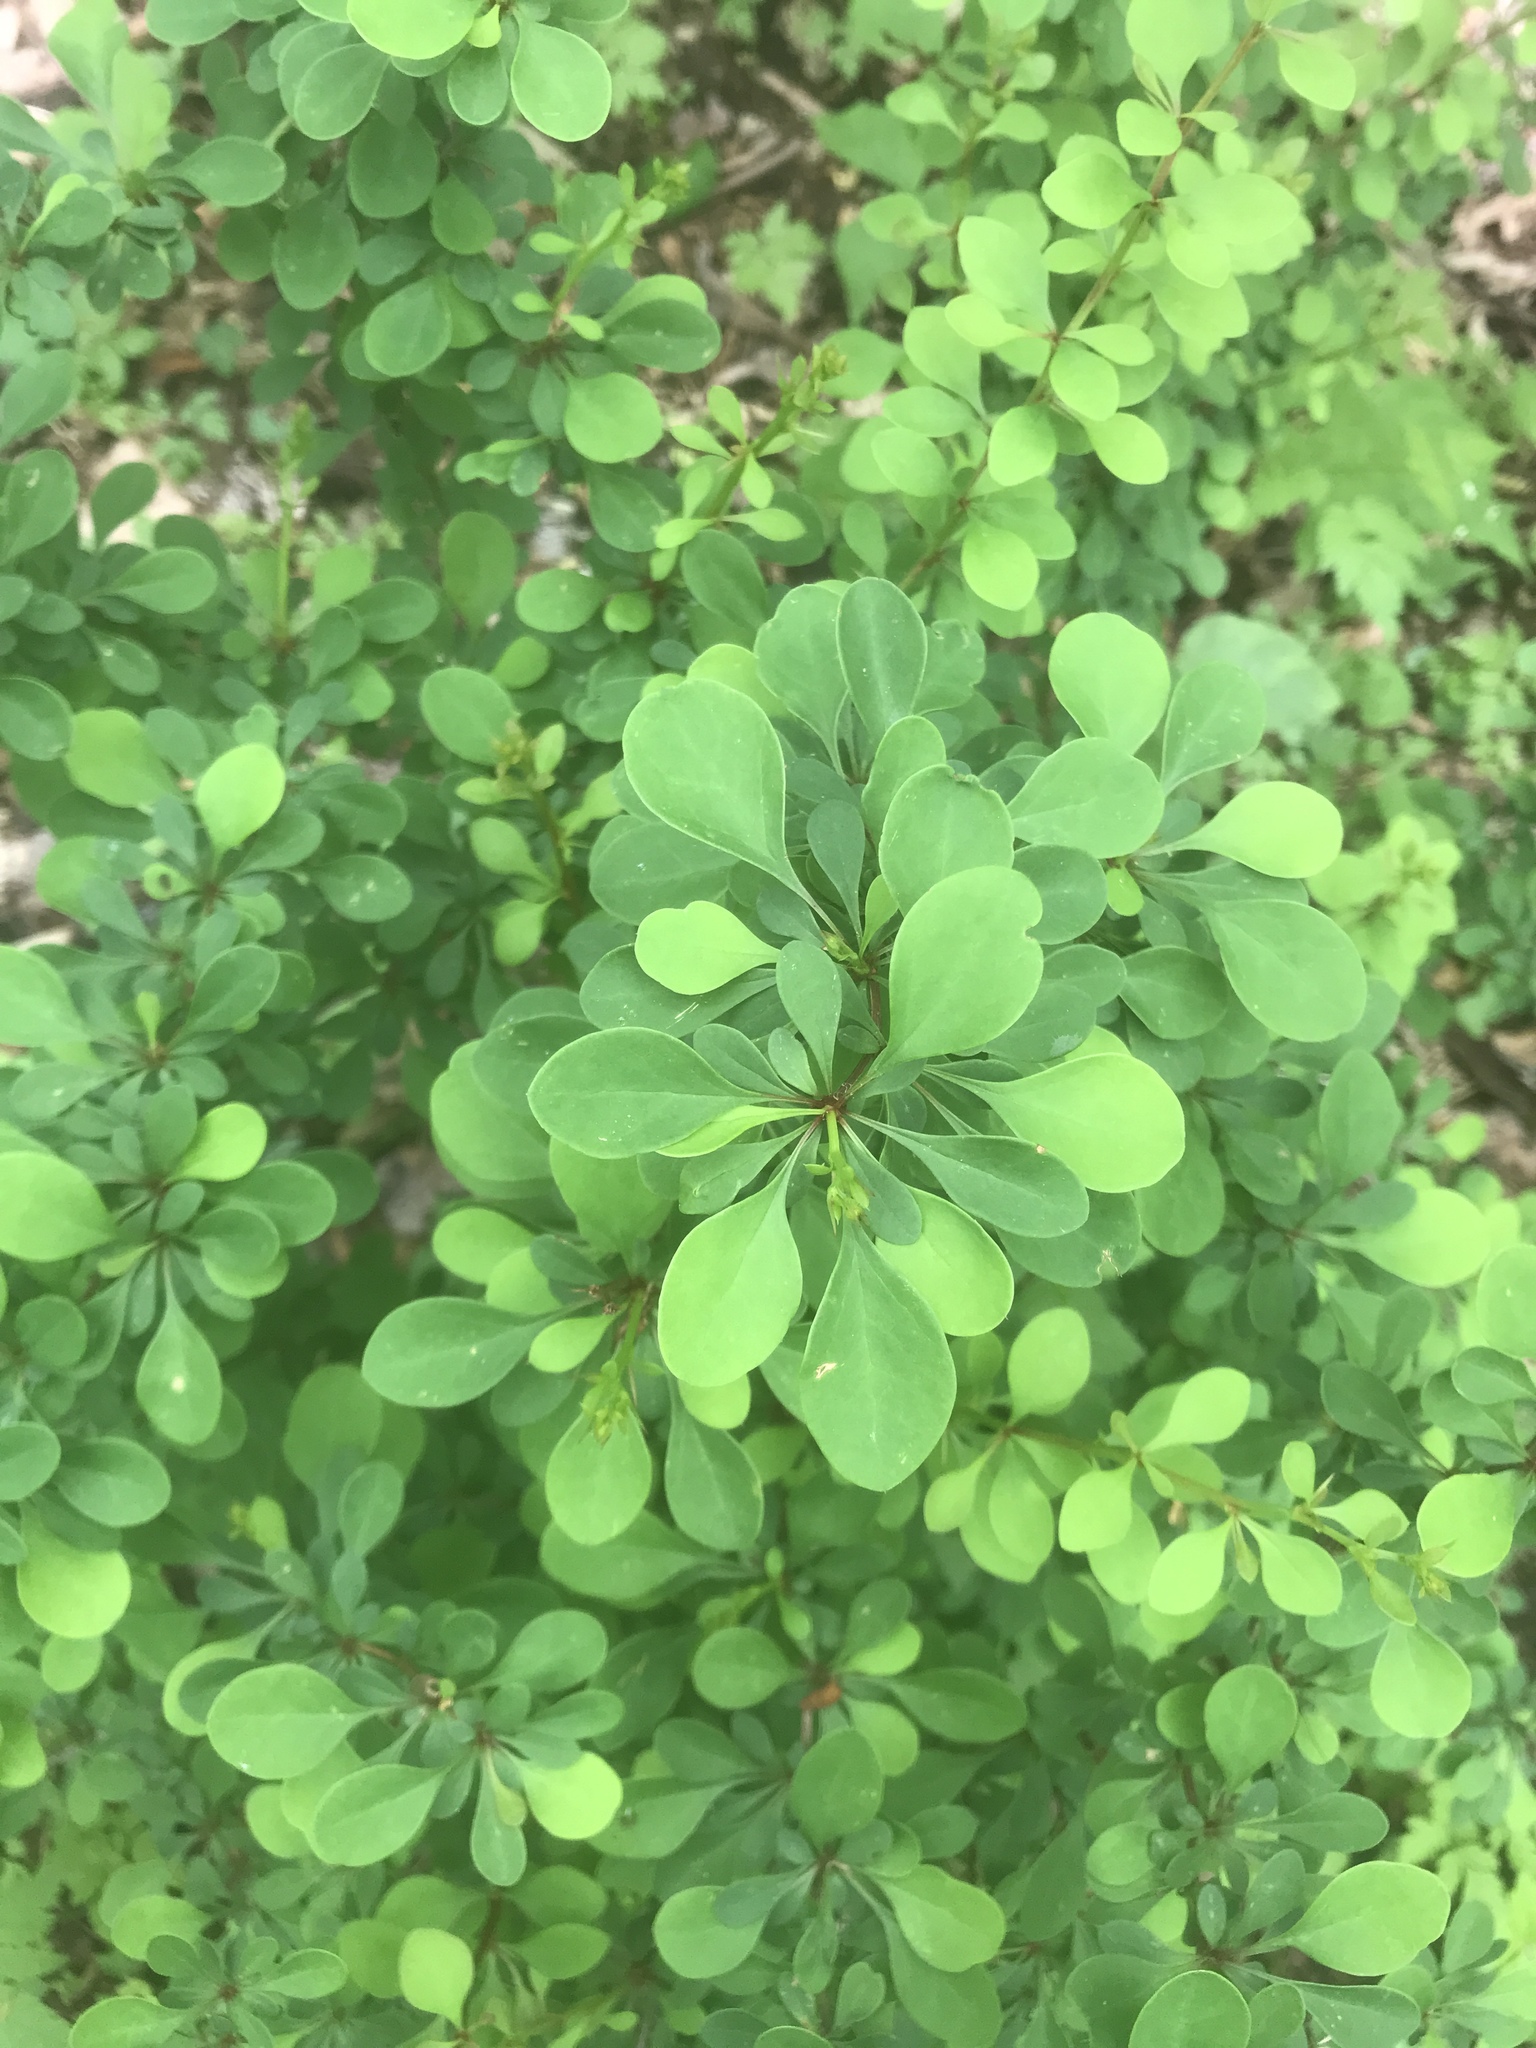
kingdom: Plantae
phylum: Tracheophyta
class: Magnoliopsida
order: Ranunculales
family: Berberidaceae
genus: Berberis
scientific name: Berberis thunbergii
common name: Japanese barberry
